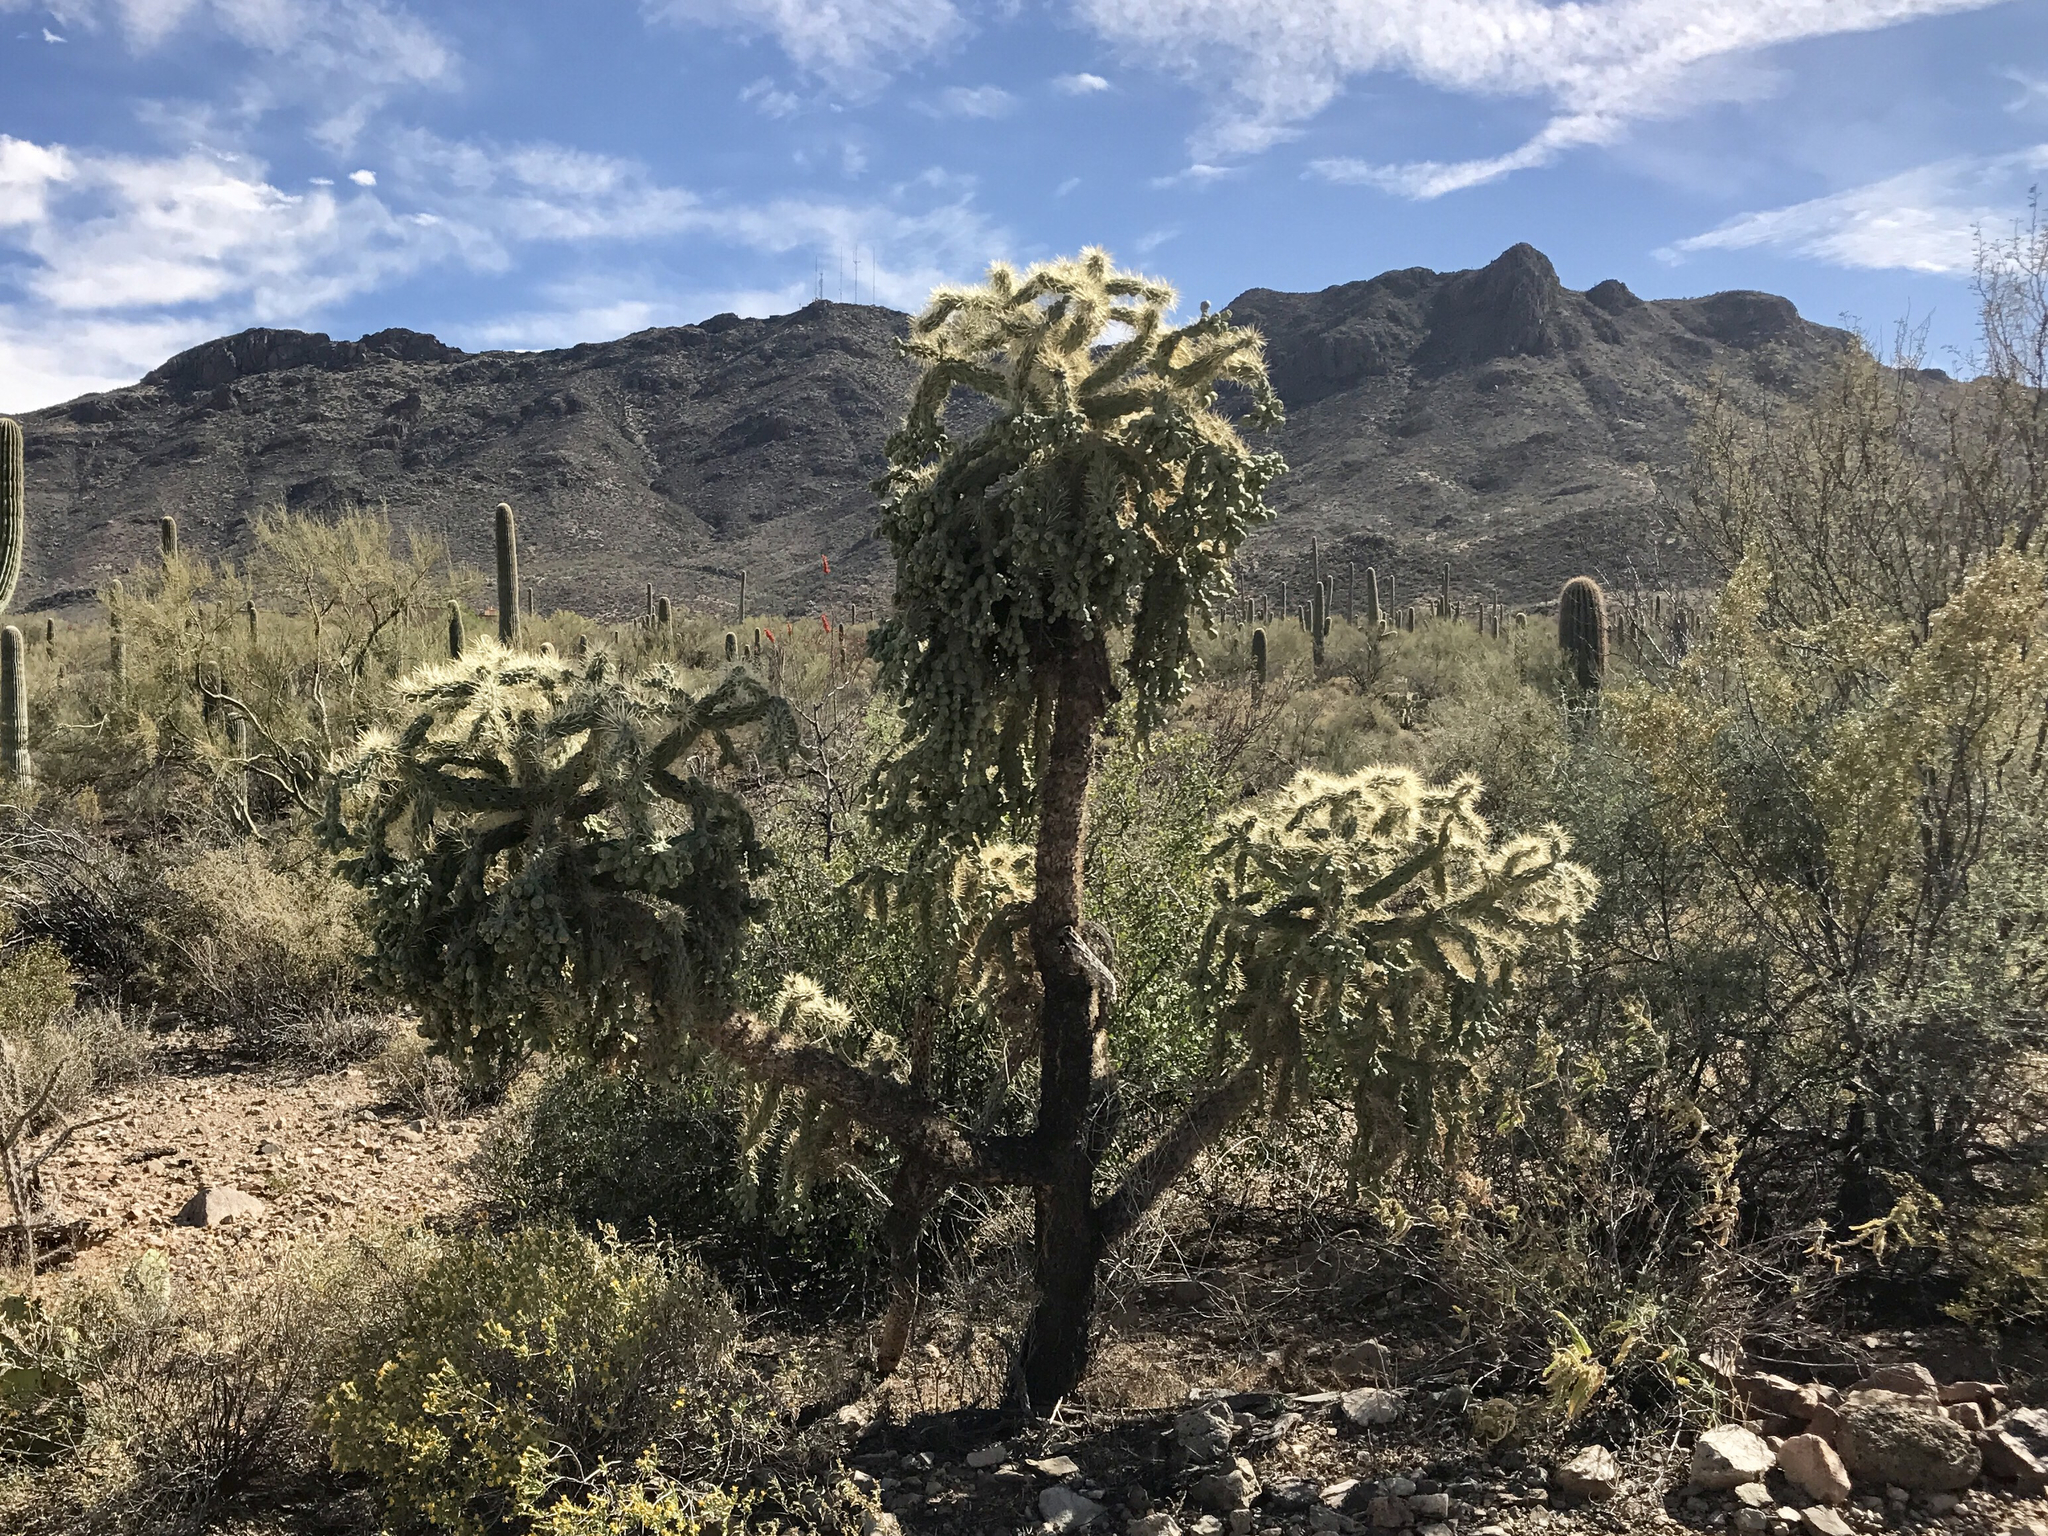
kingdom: Plantae
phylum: Tracheophyta
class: Magnoliopsida
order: Caryophyllales
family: Cactaceae
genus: Cylindropuntia
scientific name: Cylindropuntia fulgida
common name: Jumping cholla
